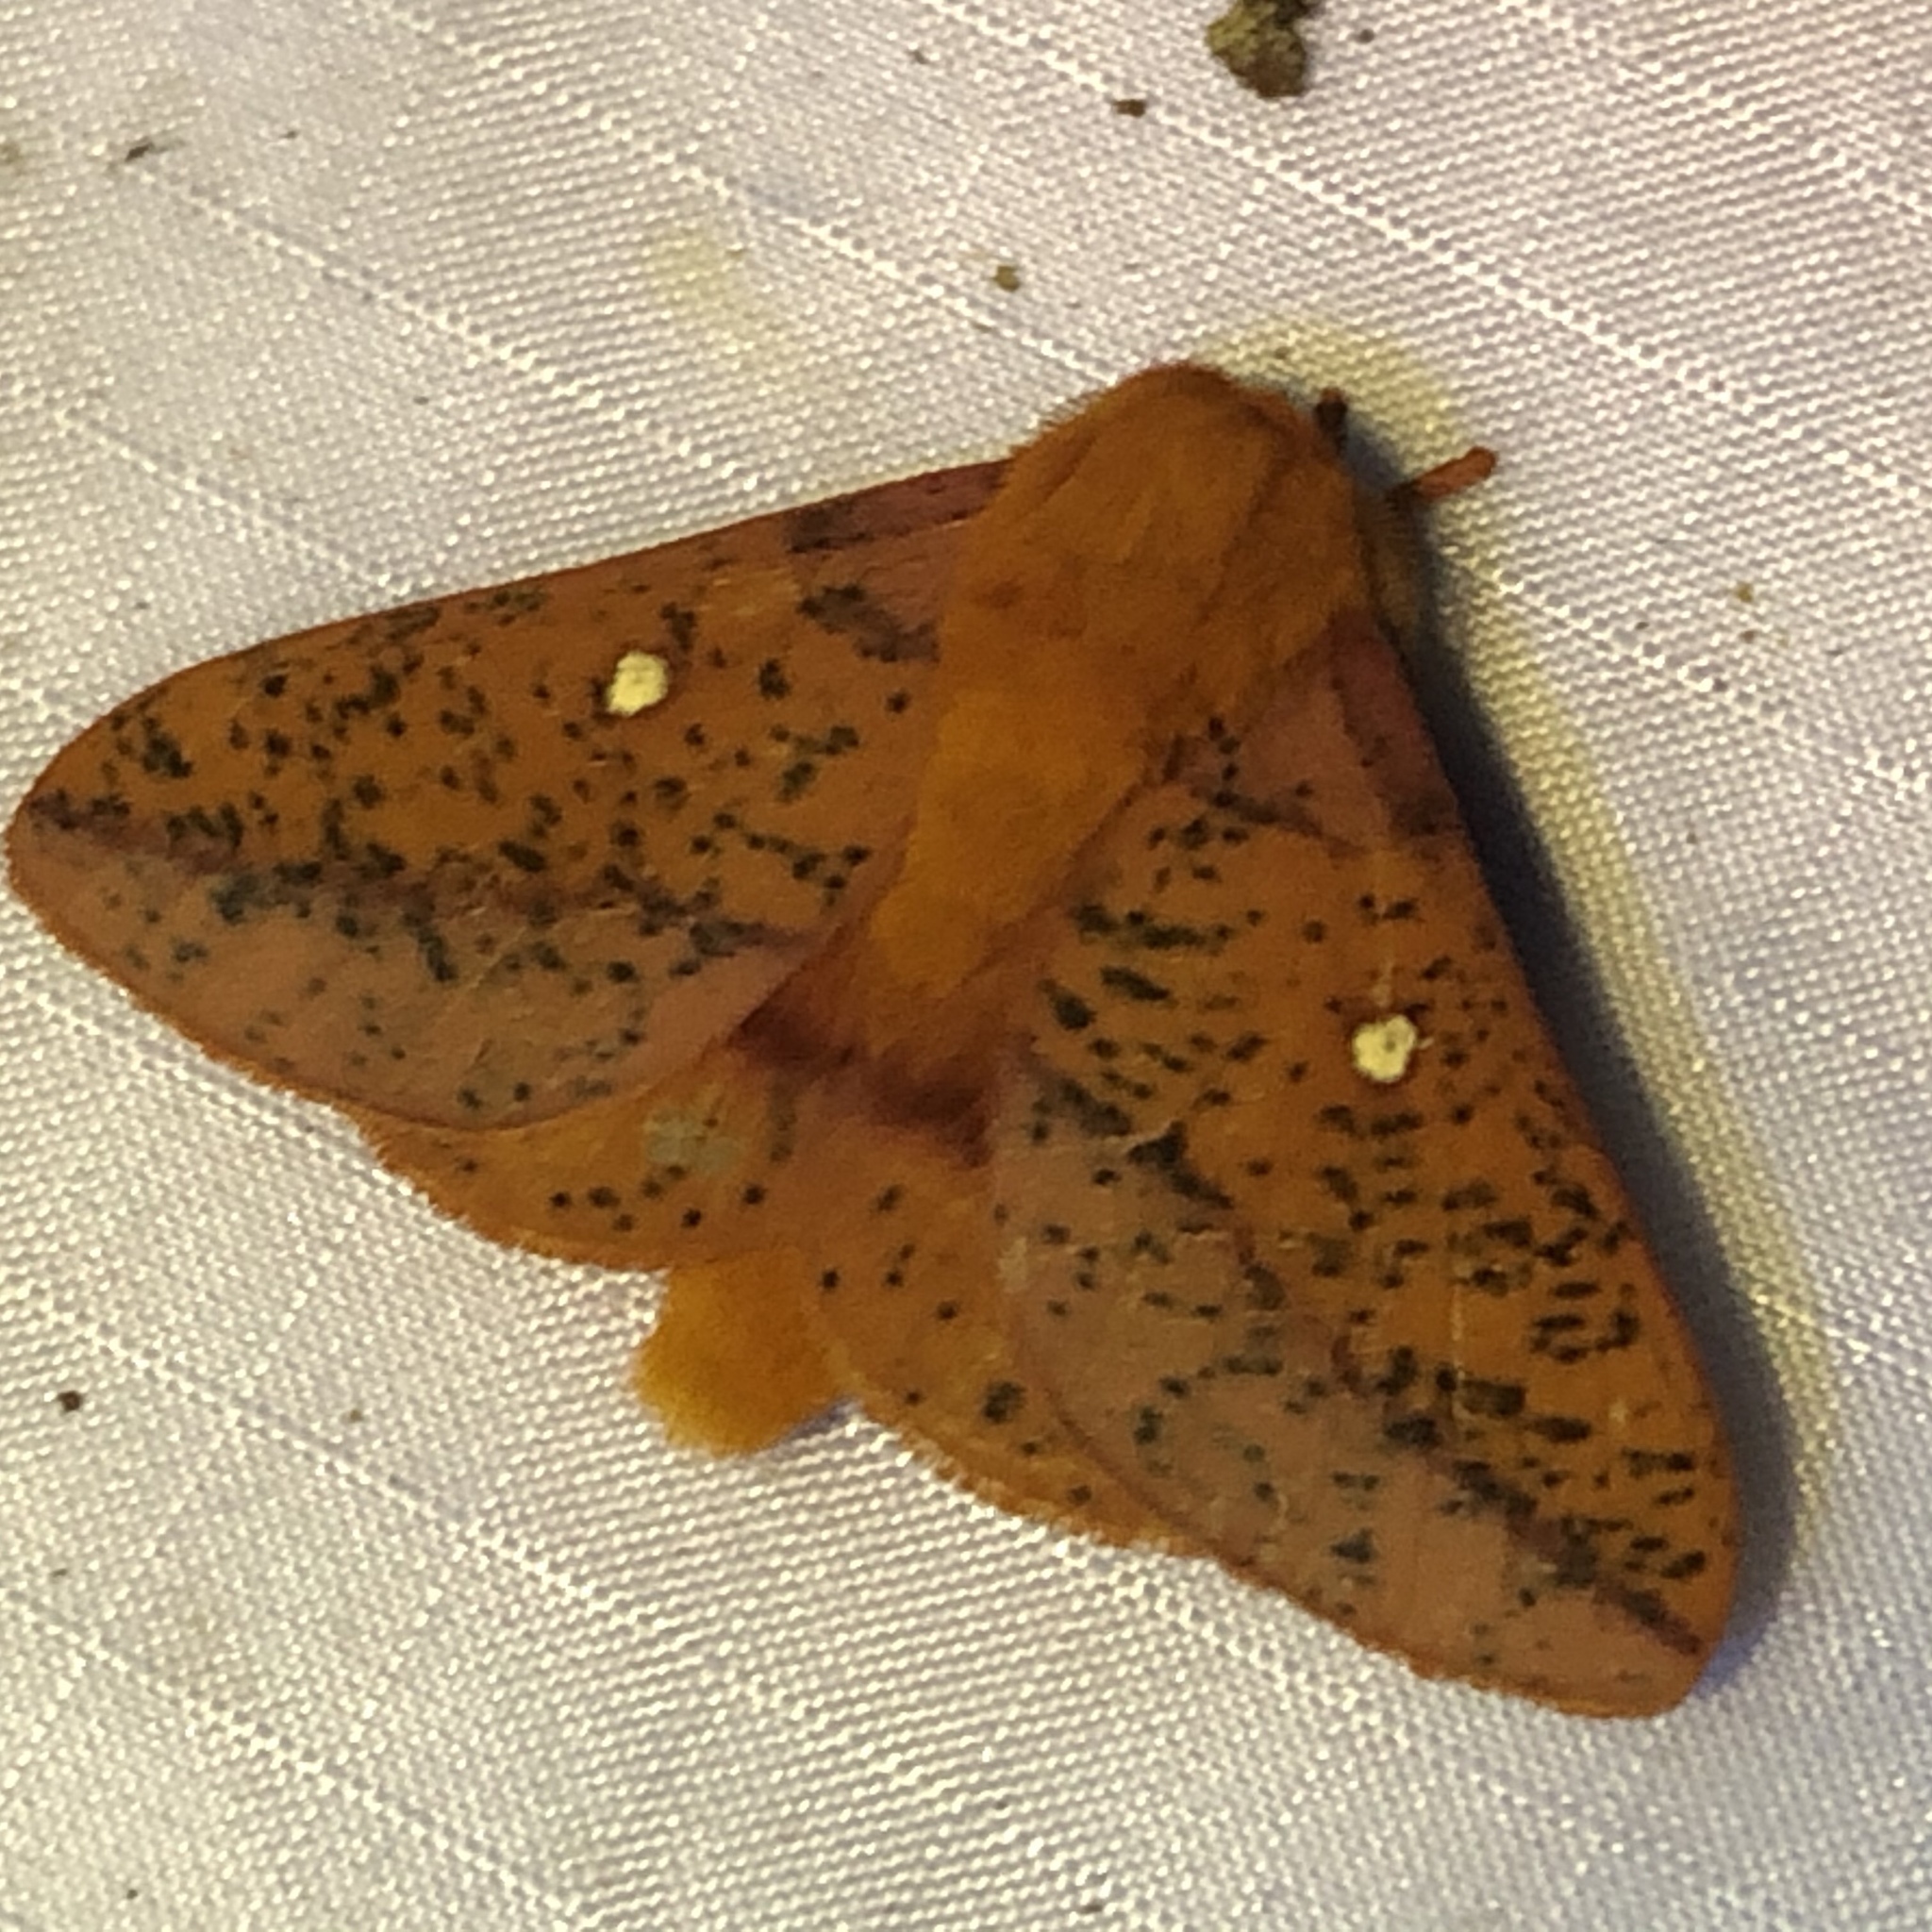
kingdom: Animalia
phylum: Arthropoda
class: Insecta
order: Lepidoptera
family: Saturniidae
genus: Anisota
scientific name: Anisota stigma
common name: Spiny oakworm moth
